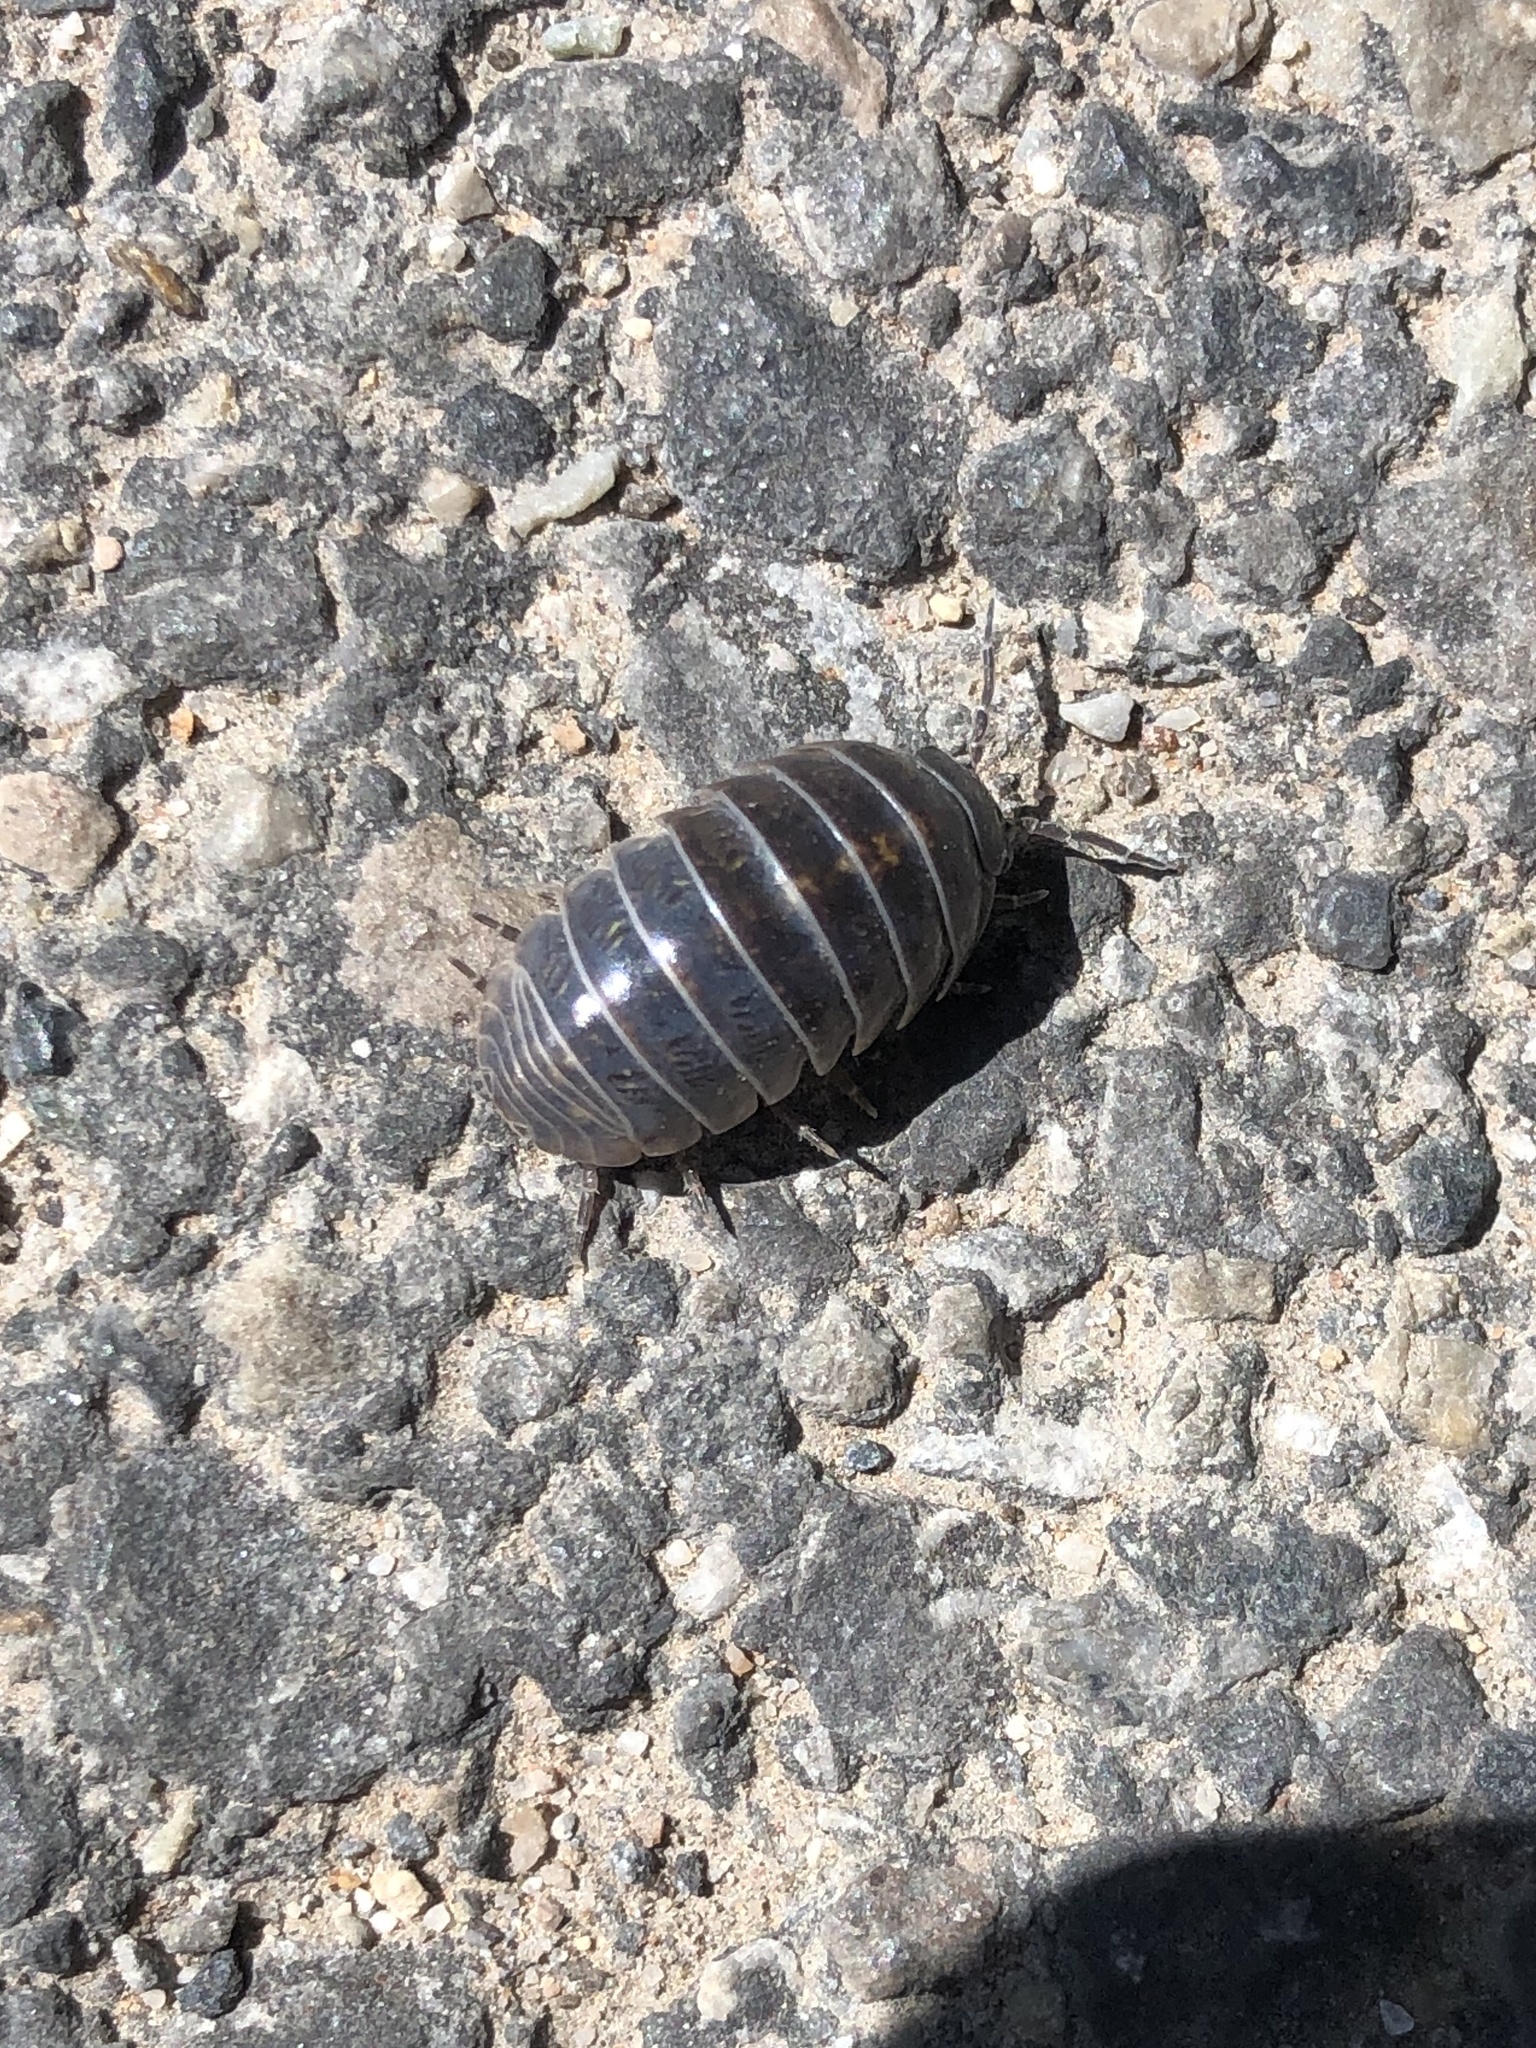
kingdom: Animalia
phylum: Arthropoda
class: Malacostraca
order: Isopoda
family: Armadillidiidae
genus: Armadillidium
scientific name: Armadillidium vulgare
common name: Common pill woodlouse
